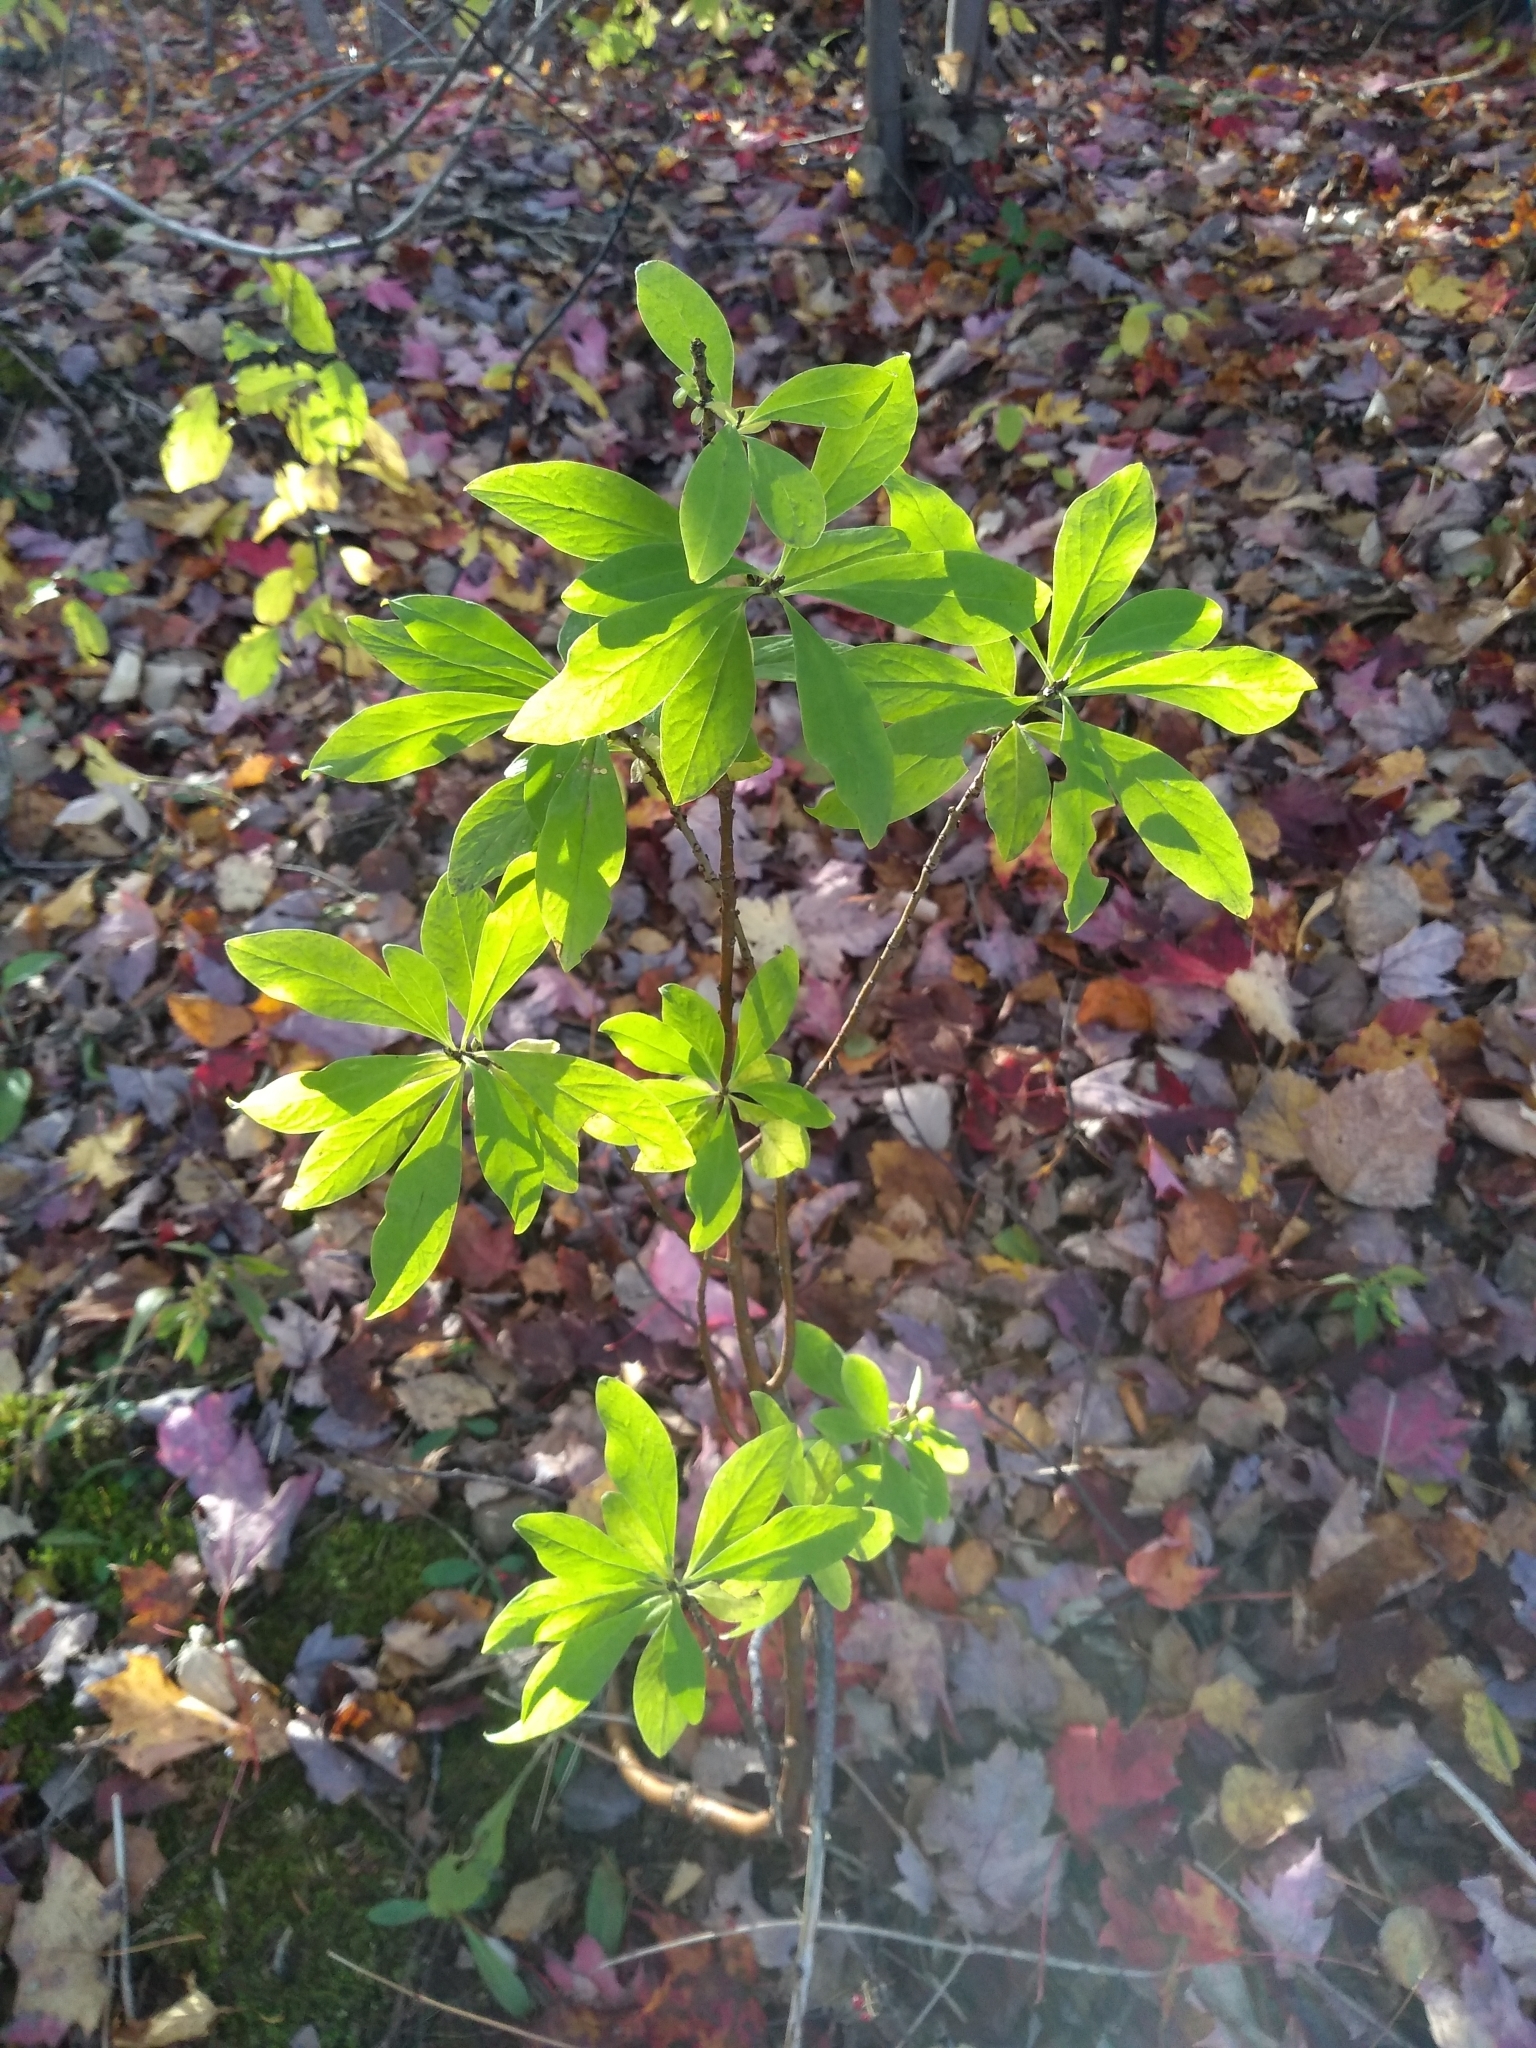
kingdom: Plantae
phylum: Tracheophyta
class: Magnoliopsida
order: Malvales
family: Thymelaeaceae
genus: Daphne
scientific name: Daphne mezereum
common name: Mezereon
